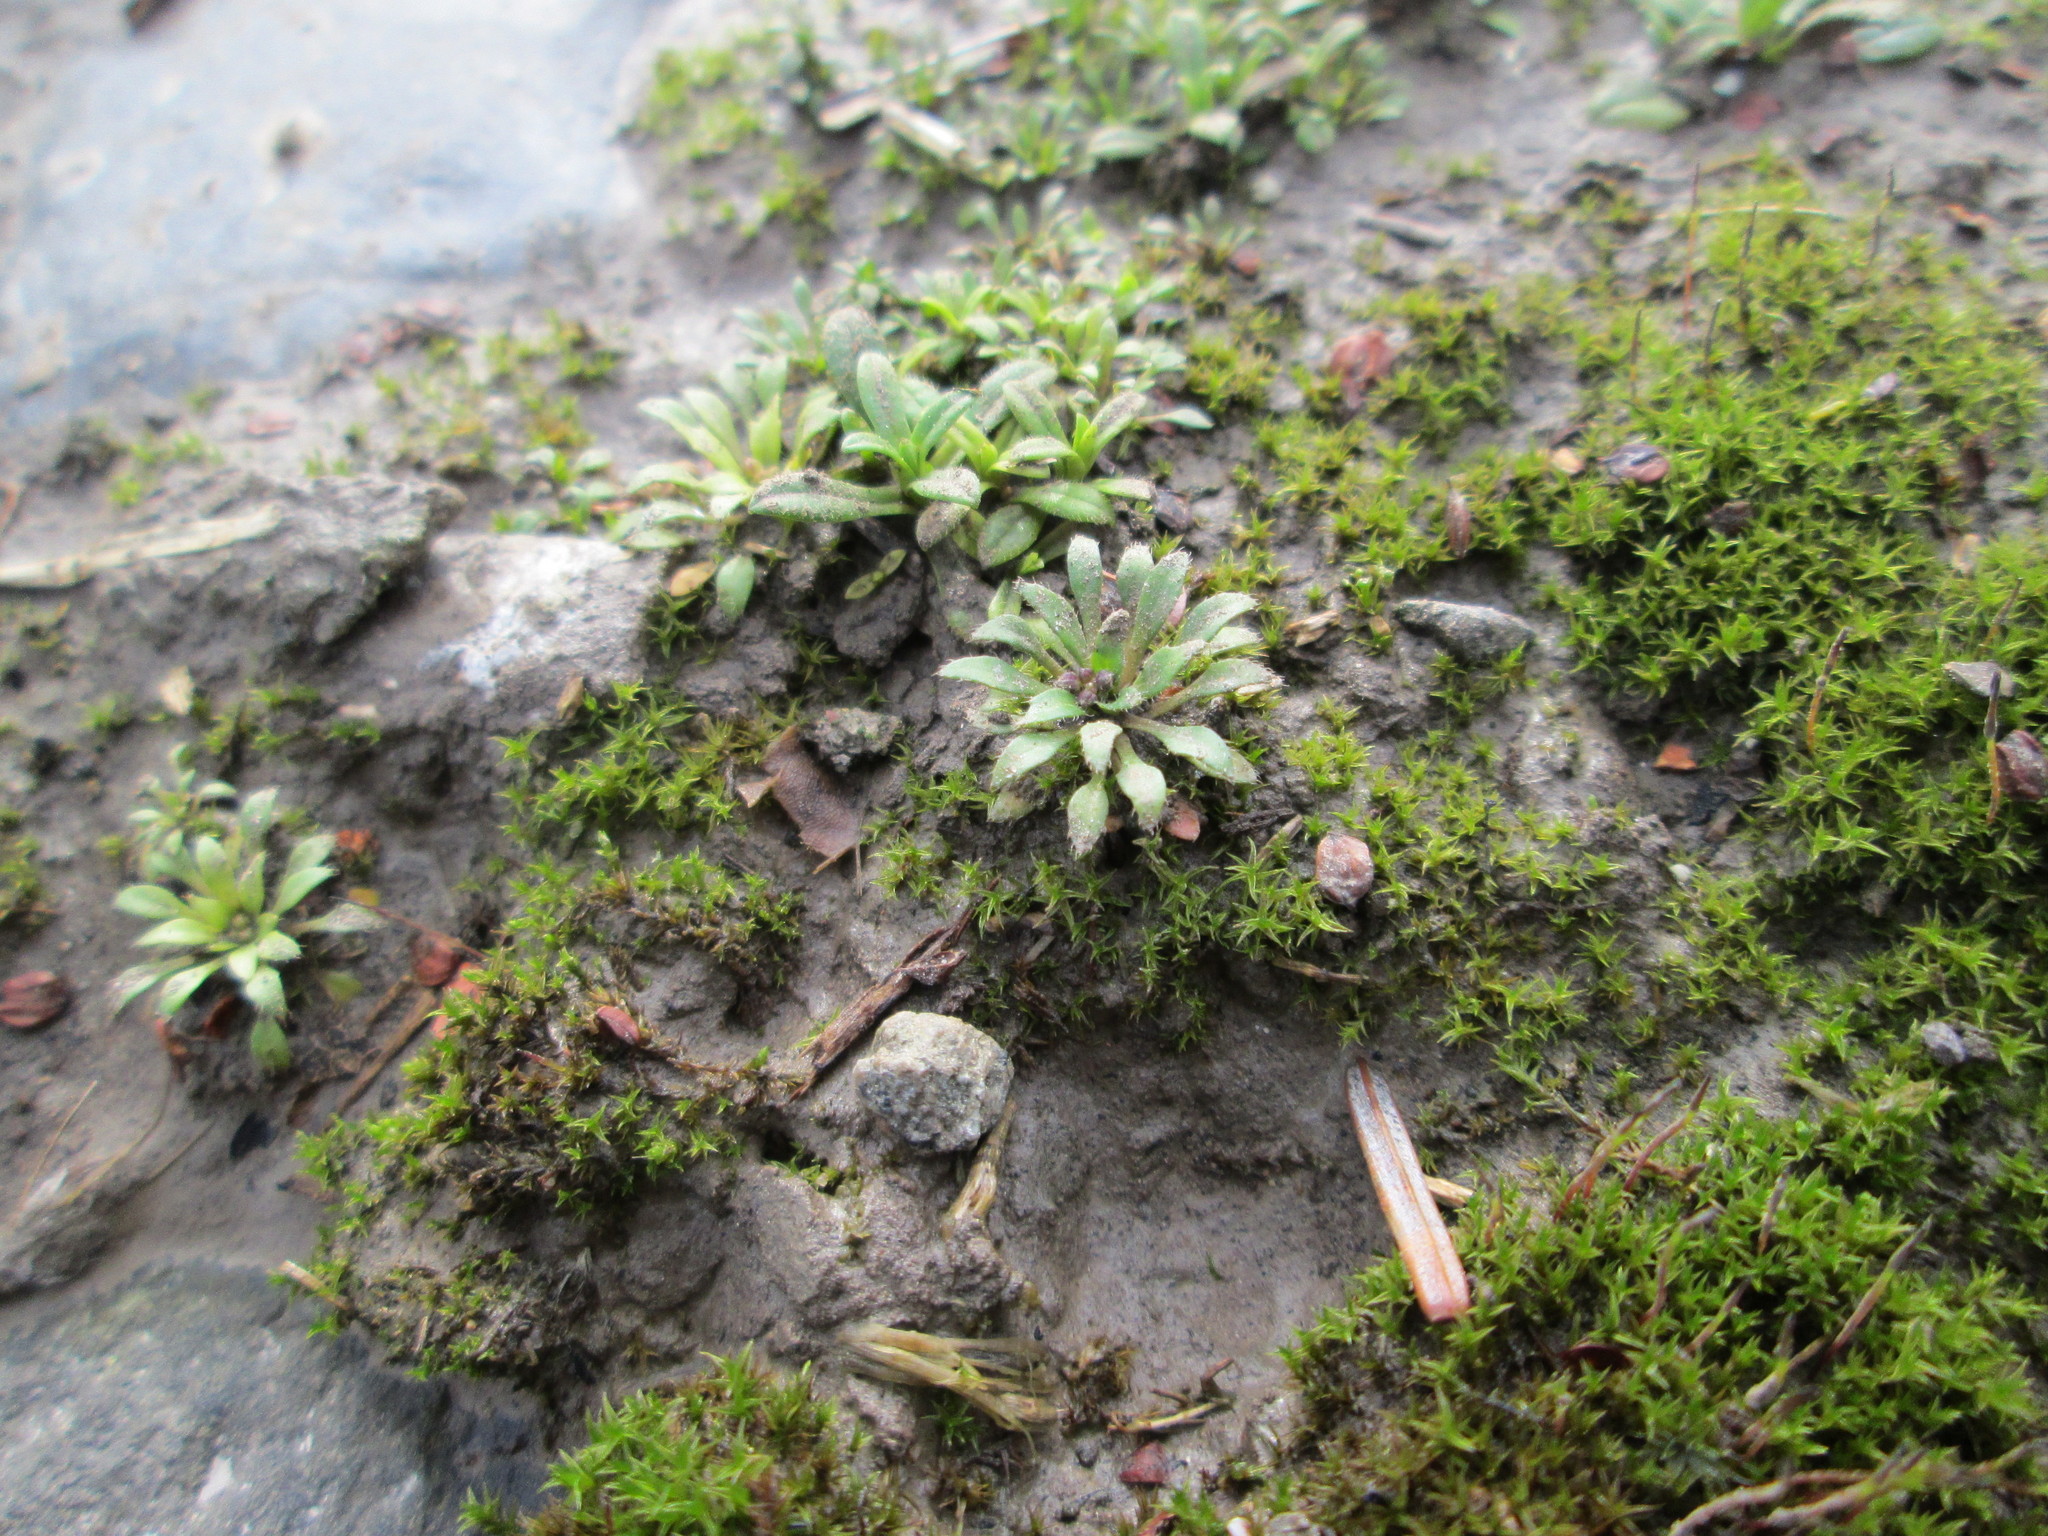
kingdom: Plantae
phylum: Tracheophyta
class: Magnoliopsida
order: Brassicales
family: Brassicaceae
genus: Draba
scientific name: Draba verna
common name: Spring draba
